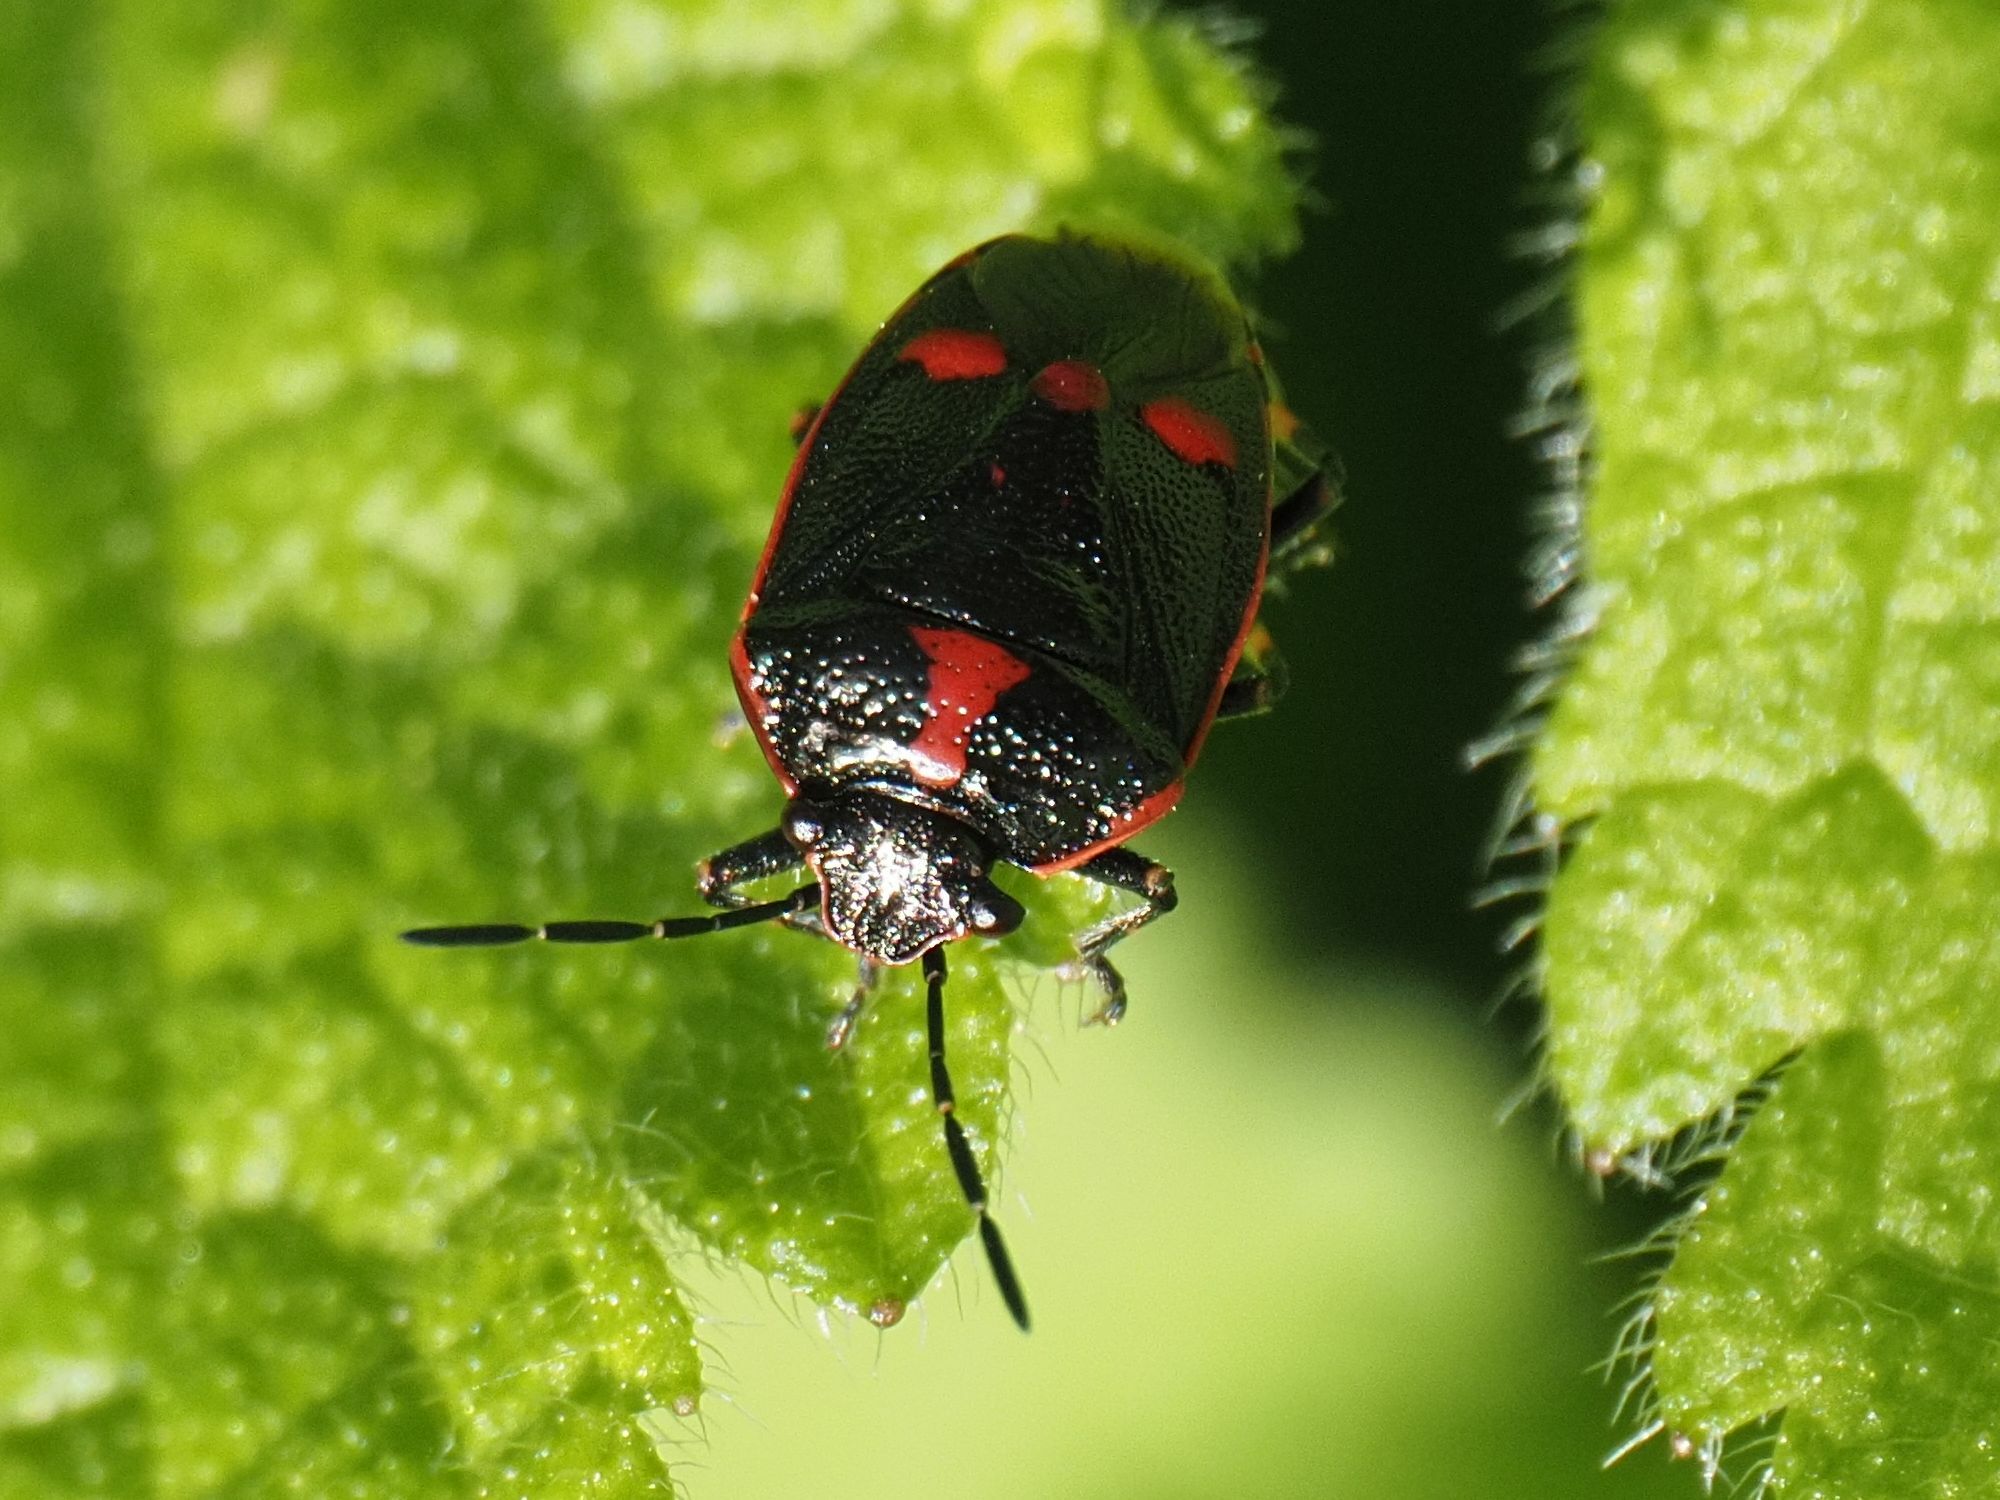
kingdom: Animalia
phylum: Arthropoda
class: Insecta
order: Hemiptera
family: Pentatomidae
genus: Eurydema
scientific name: Eurydema oleracea
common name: Cabbage bug
